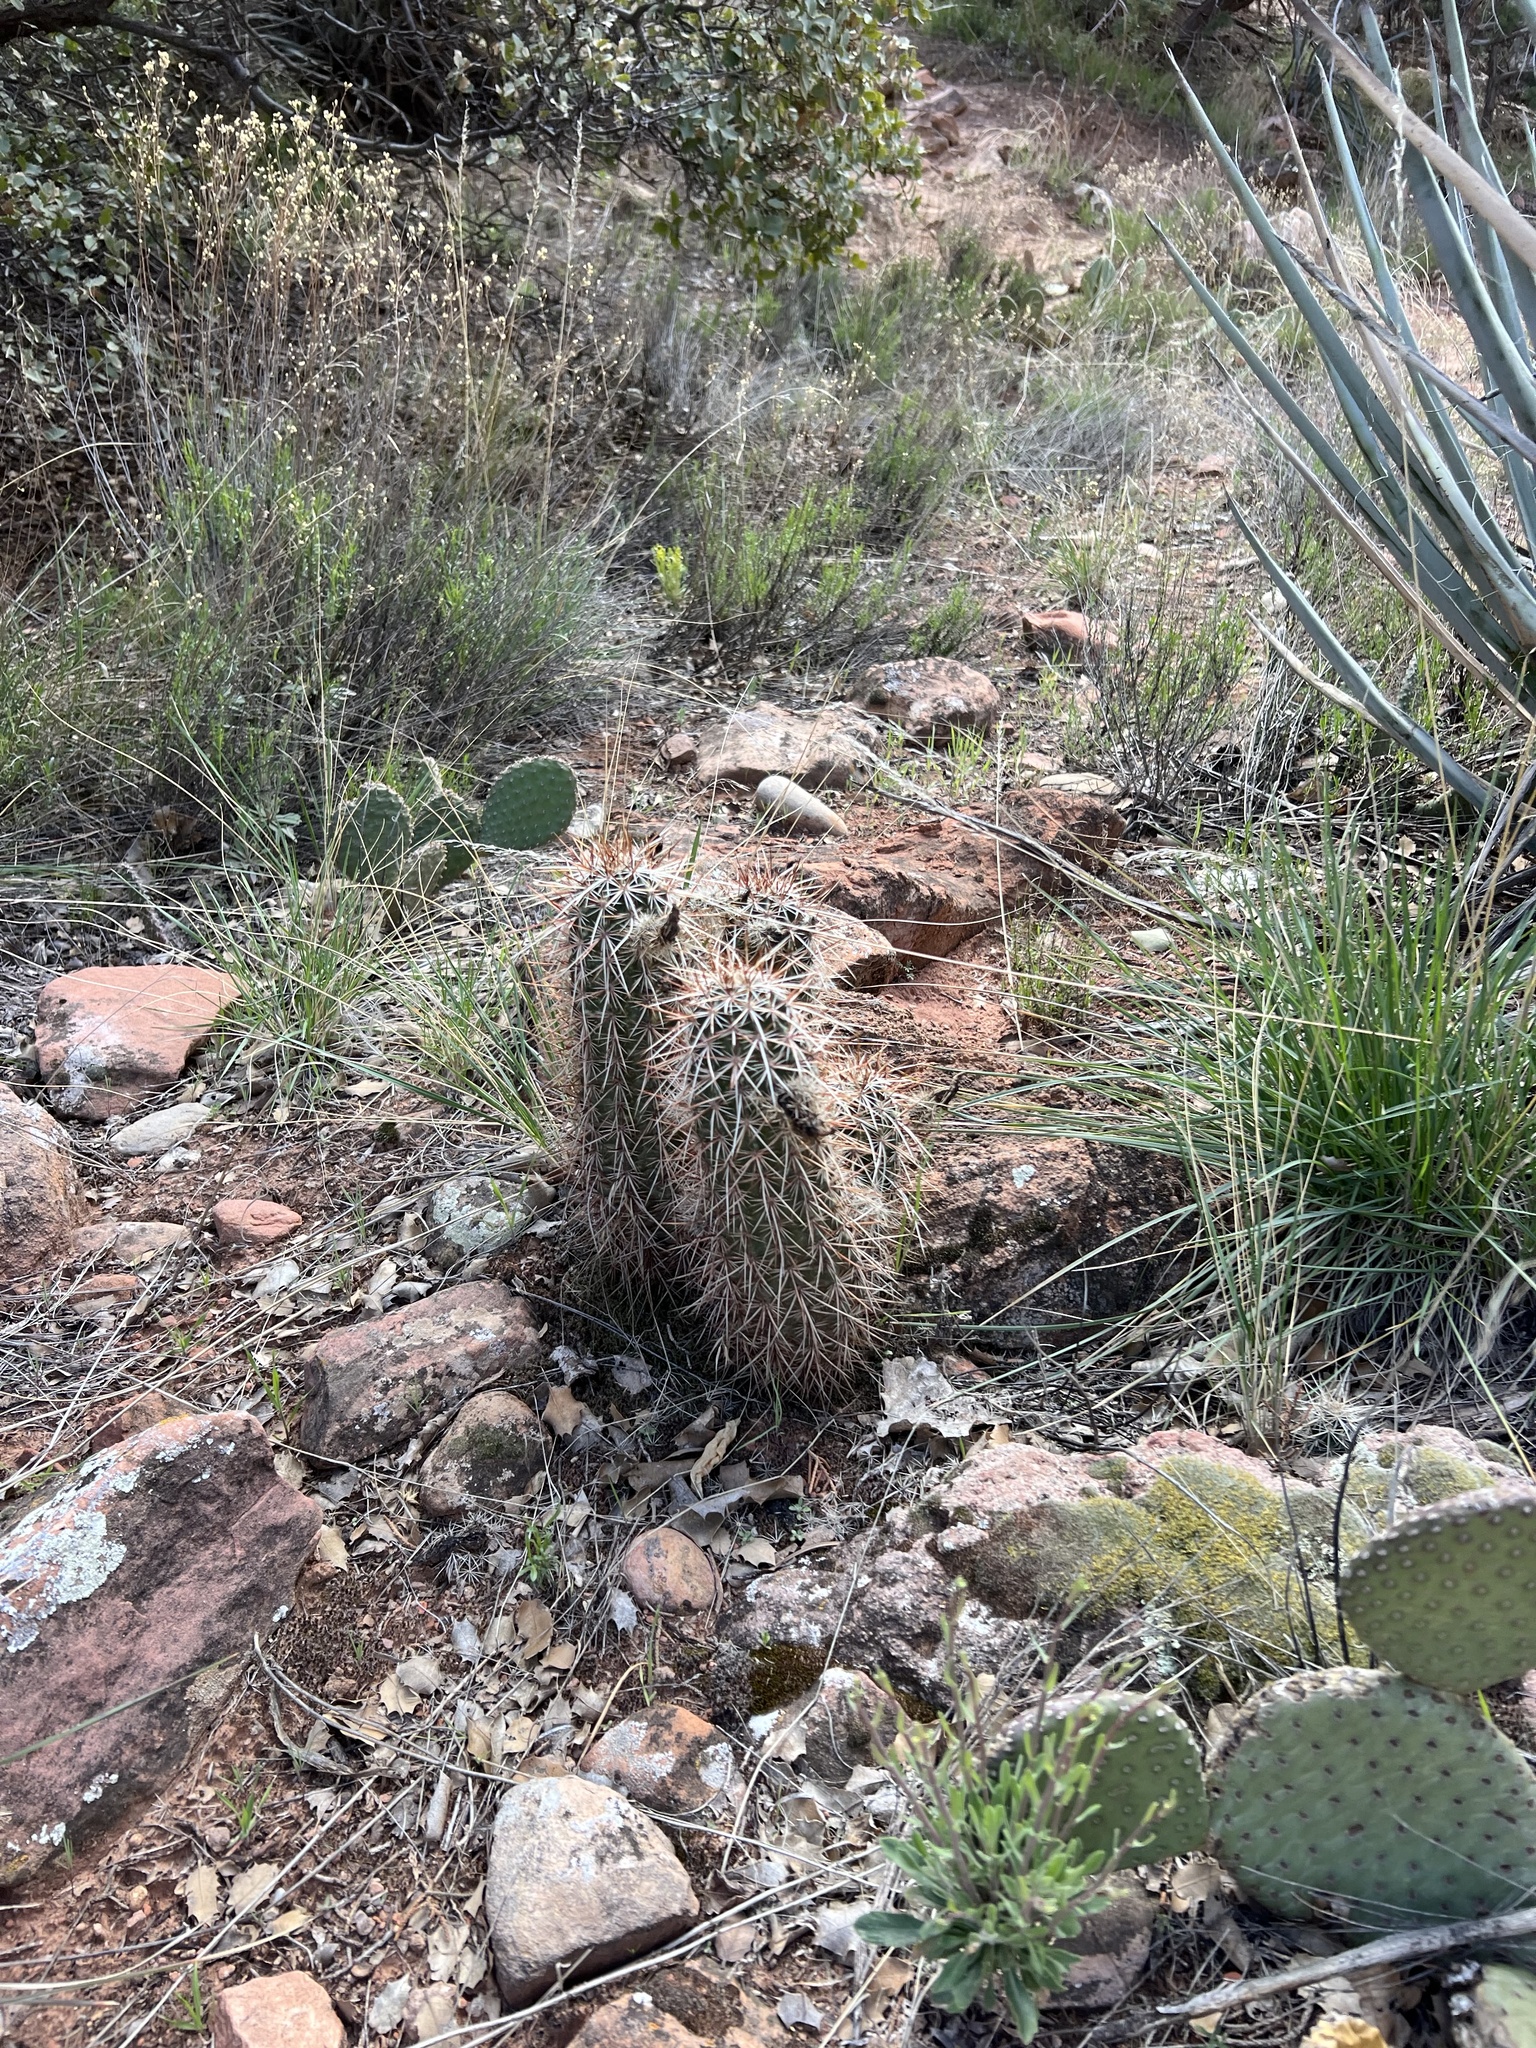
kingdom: Plantae
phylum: Tracheophyta
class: Magnoliopsida
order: Caryophyllales
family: Cactaceae
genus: Echinocereus
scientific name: Echinocereus engelmannii
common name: Engelmann's hedgehog cactus
